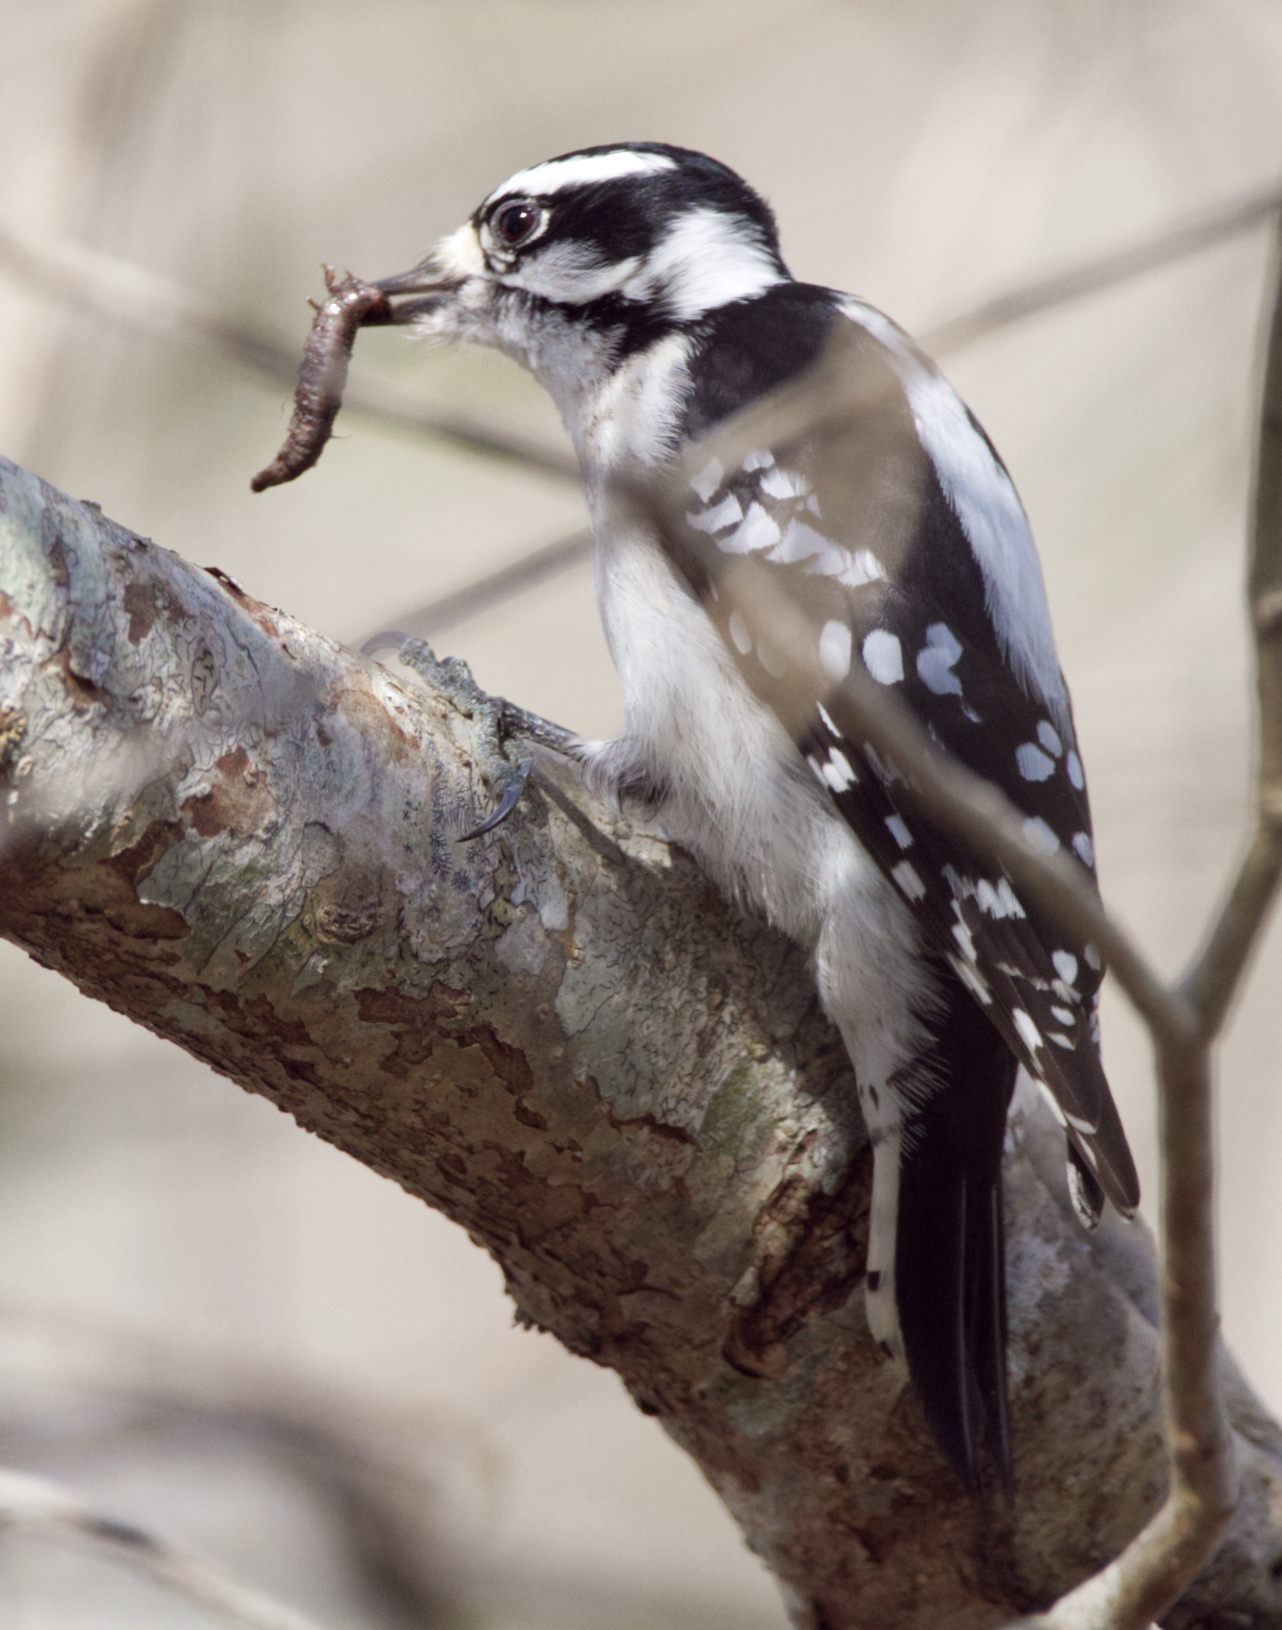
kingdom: Animalia
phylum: Chordata
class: Aves
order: Piciformes
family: Picidae
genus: Dryobates
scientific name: Dryobates pubescens
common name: Downy woodpecker
